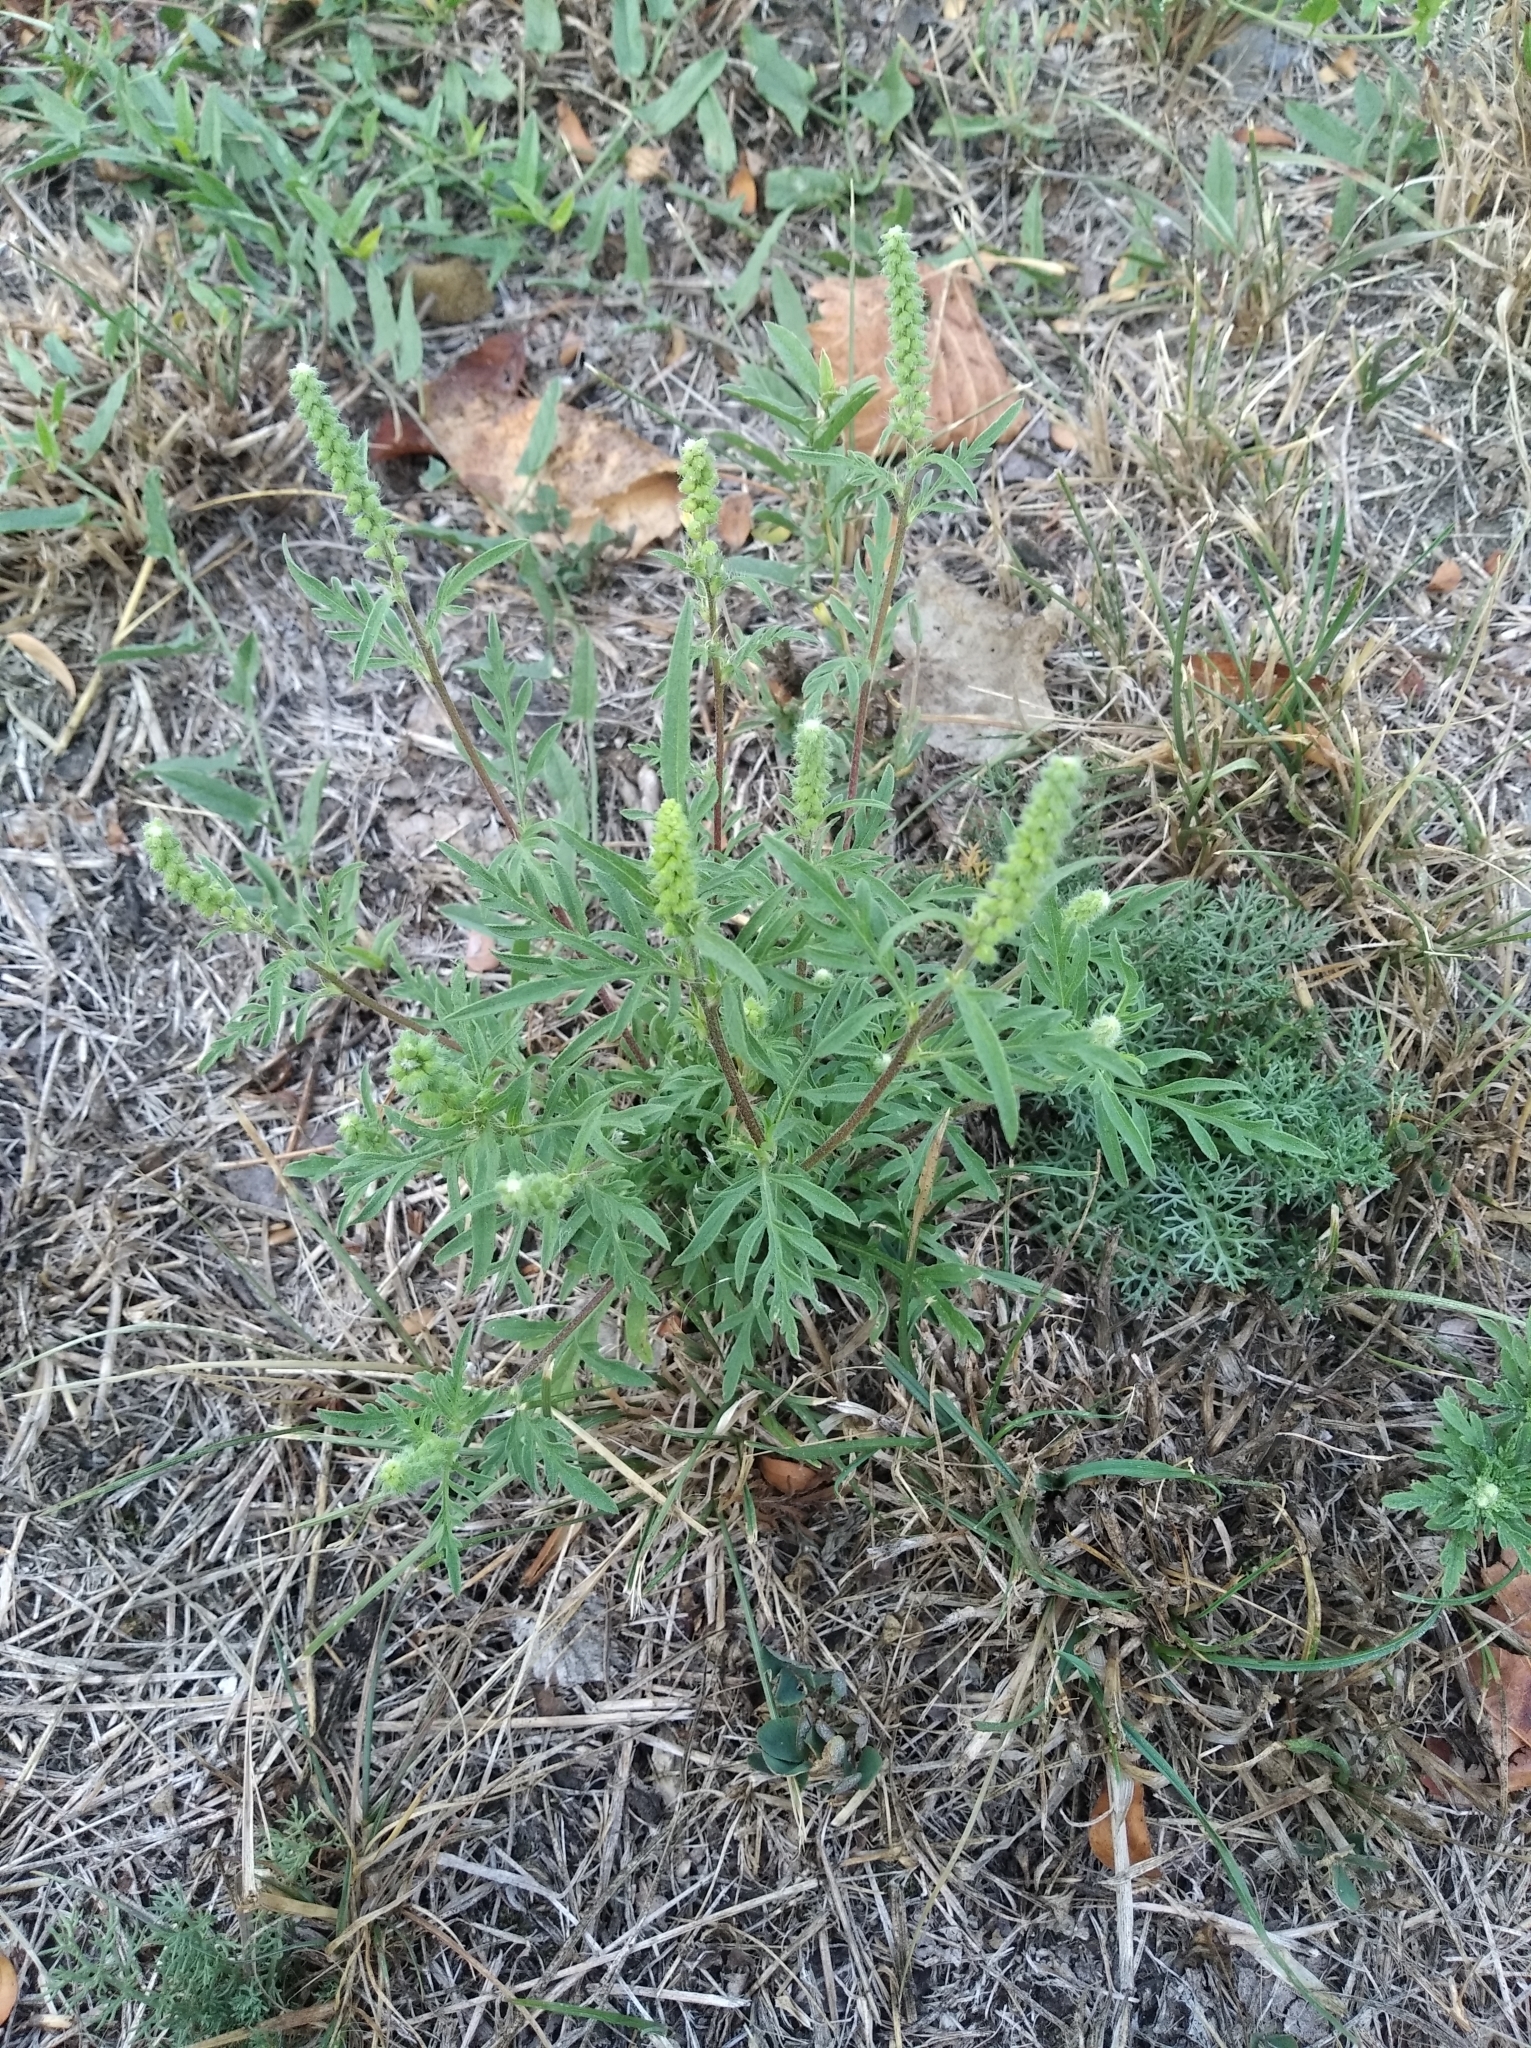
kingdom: Plantae
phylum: Tracheophyta
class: Magnoliopsida
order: Asterales
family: Asteraceae
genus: Ambrosia
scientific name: Ambrosia artemisiifolia
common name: Annual ragweed
